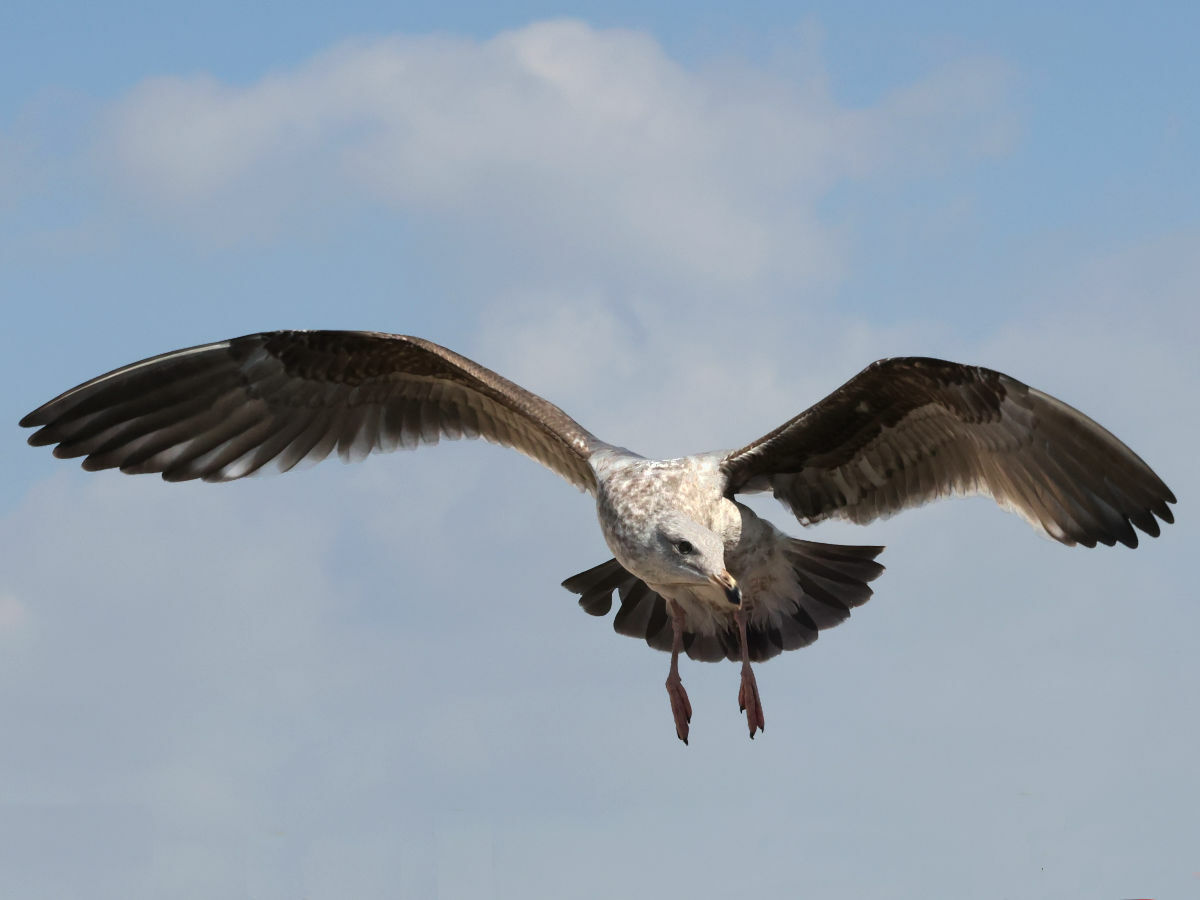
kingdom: Animalia
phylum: Chordata
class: Aves
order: Charadriiformes
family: Laridae
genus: Larus
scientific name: Larus occidentalis
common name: Western gull
